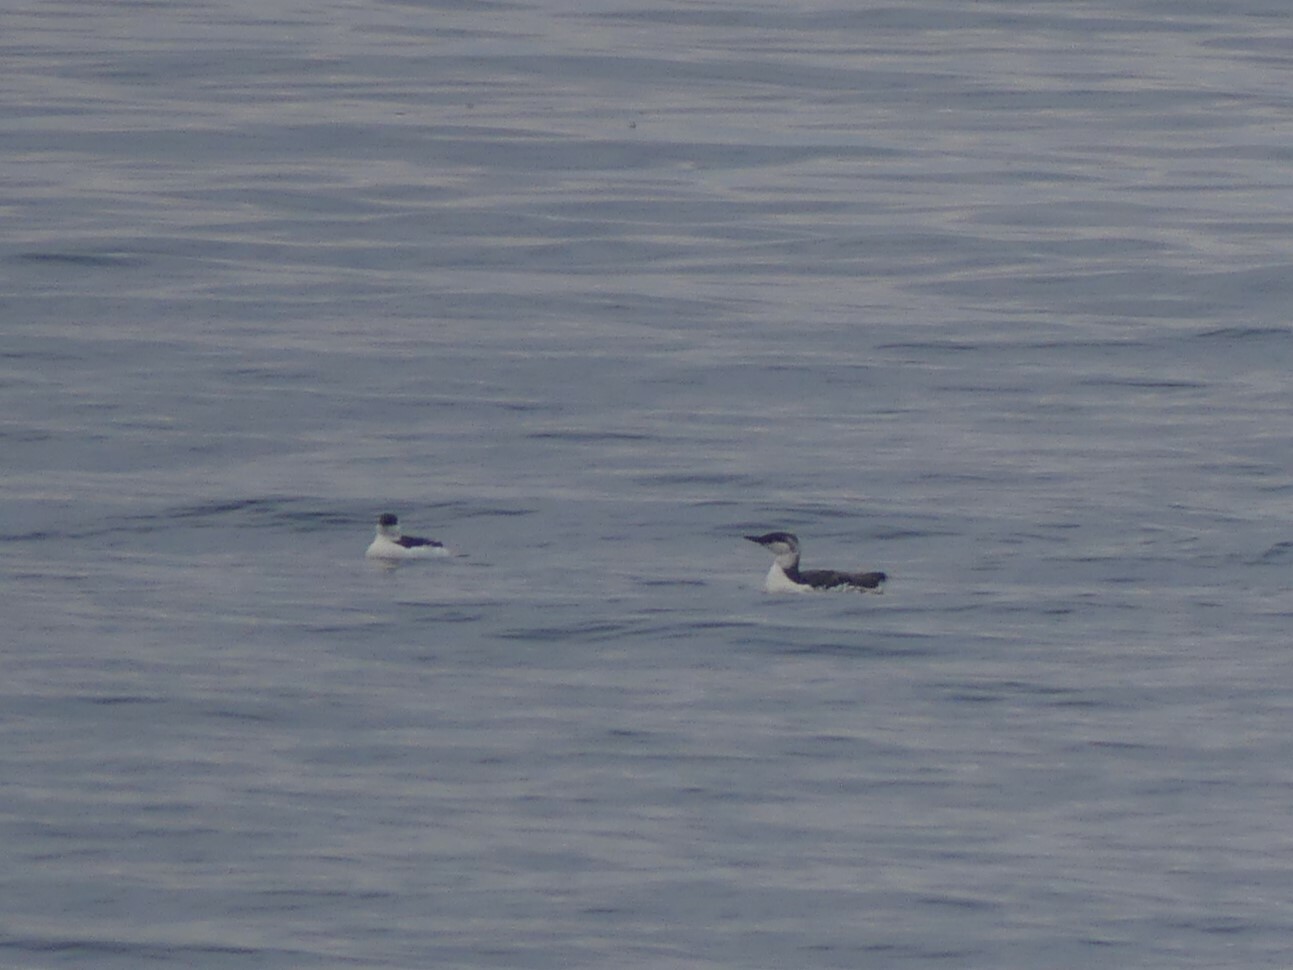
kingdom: Animalia
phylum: Chordata
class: Aves
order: Charadriiformes
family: Alcidae
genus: Uria
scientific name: Uria aalge
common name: Common murre
